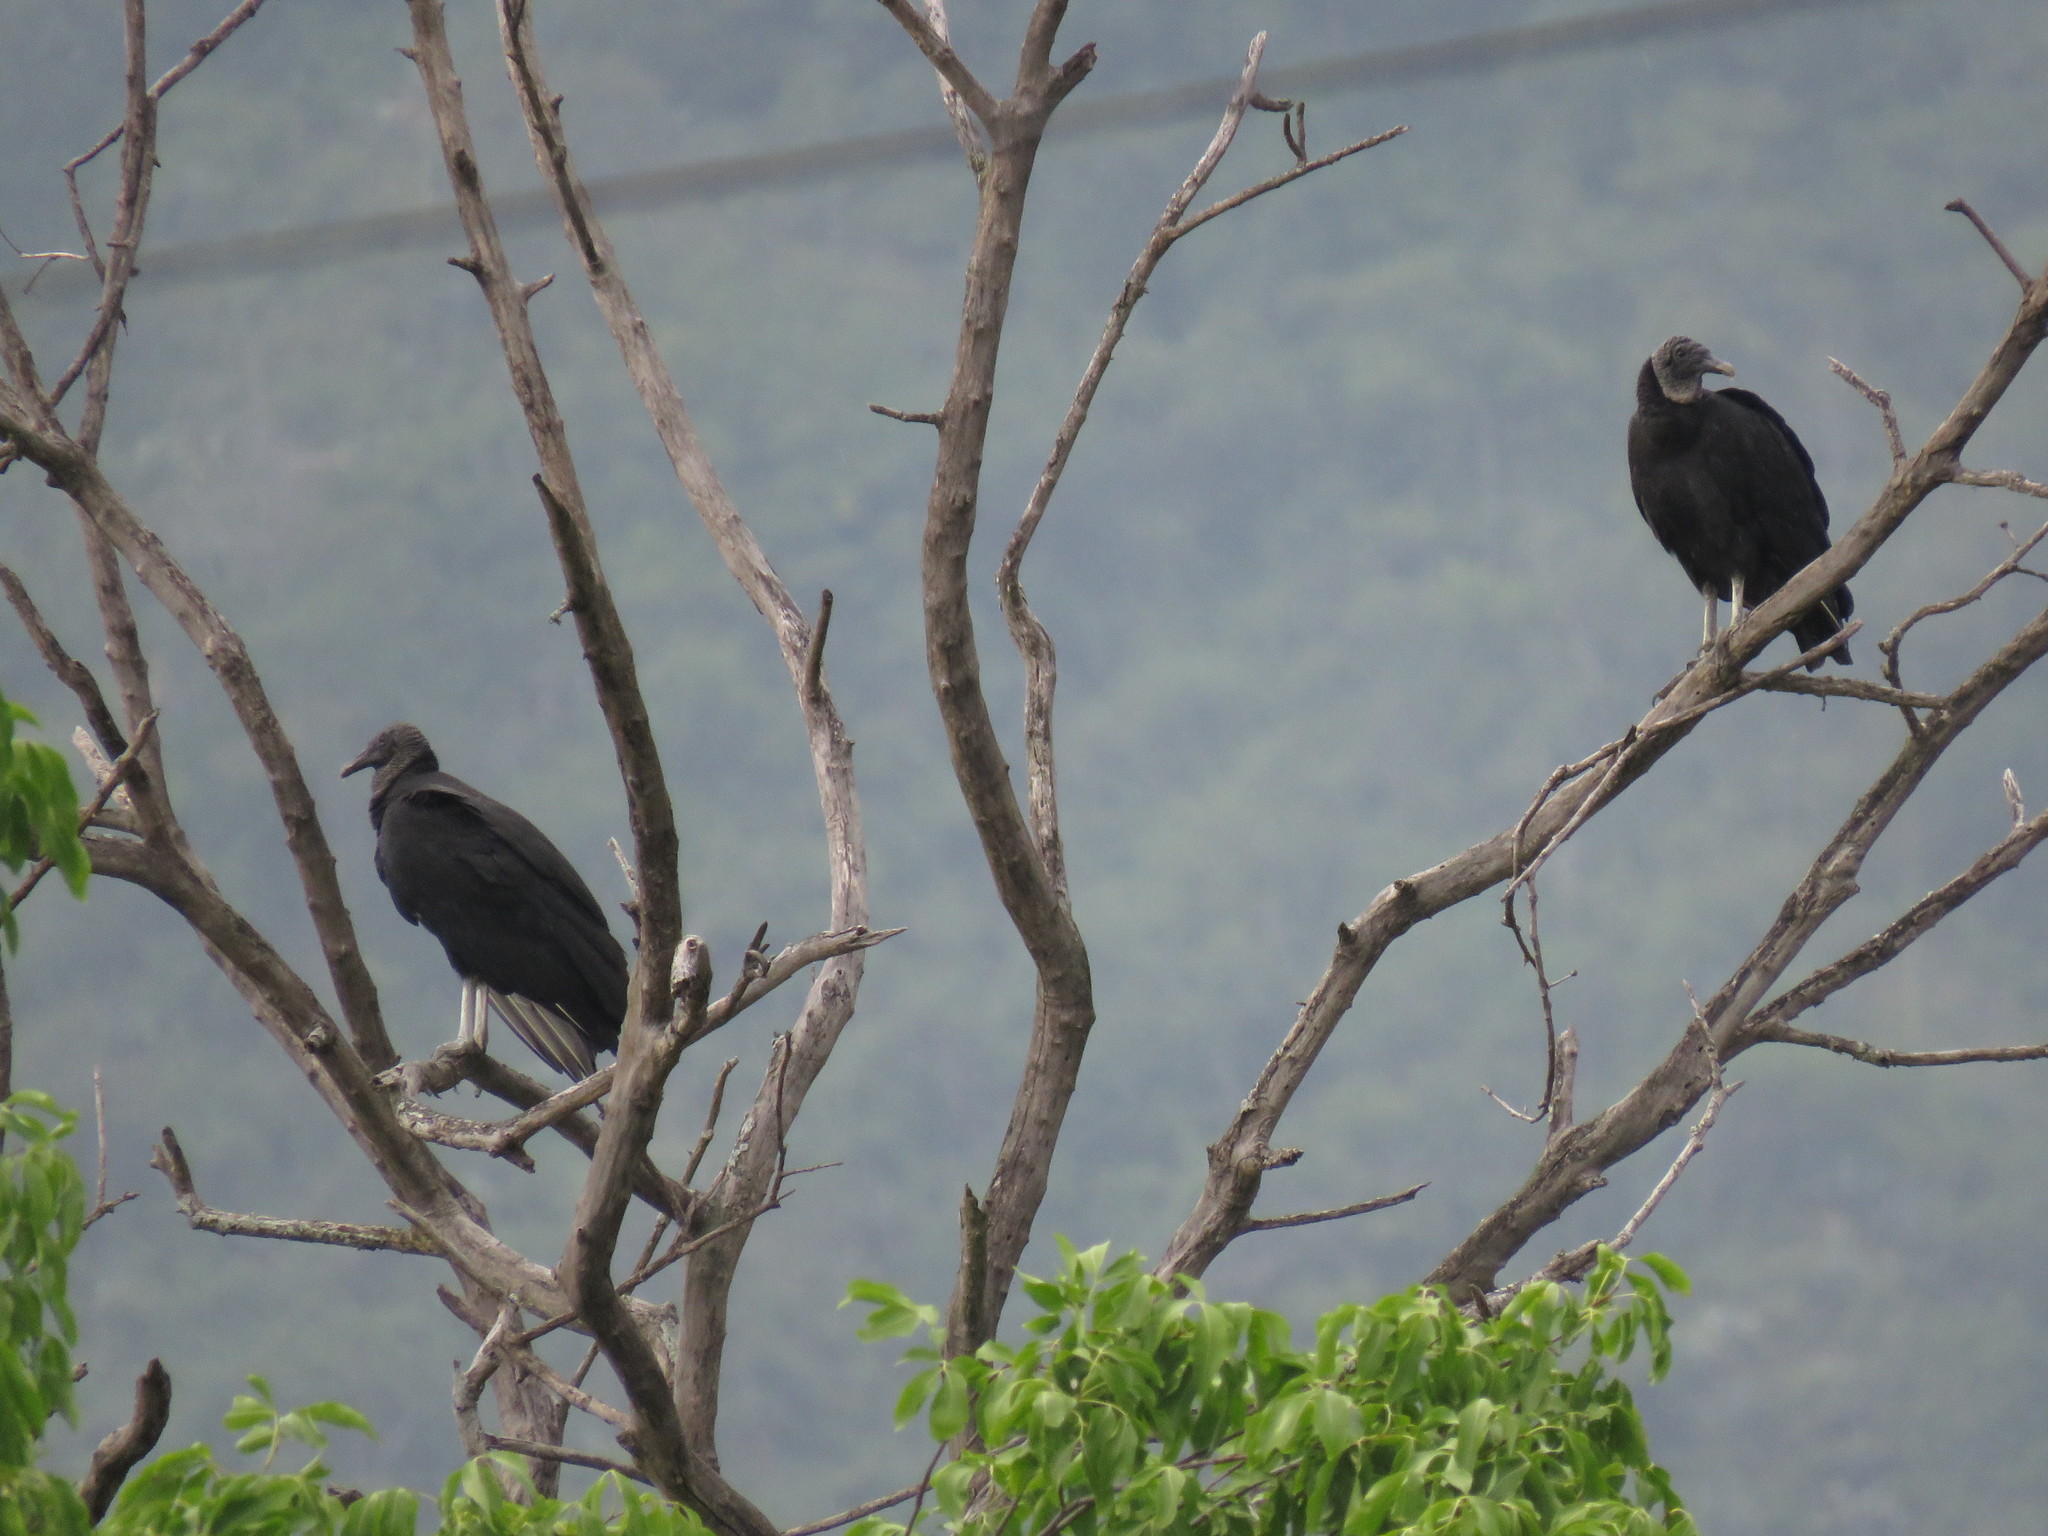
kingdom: Animalia
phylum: Chordata
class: Aves
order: Accipitriformes
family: Cathartidae
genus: Coragyps
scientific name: Coragyps atratus
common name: Black vulture
